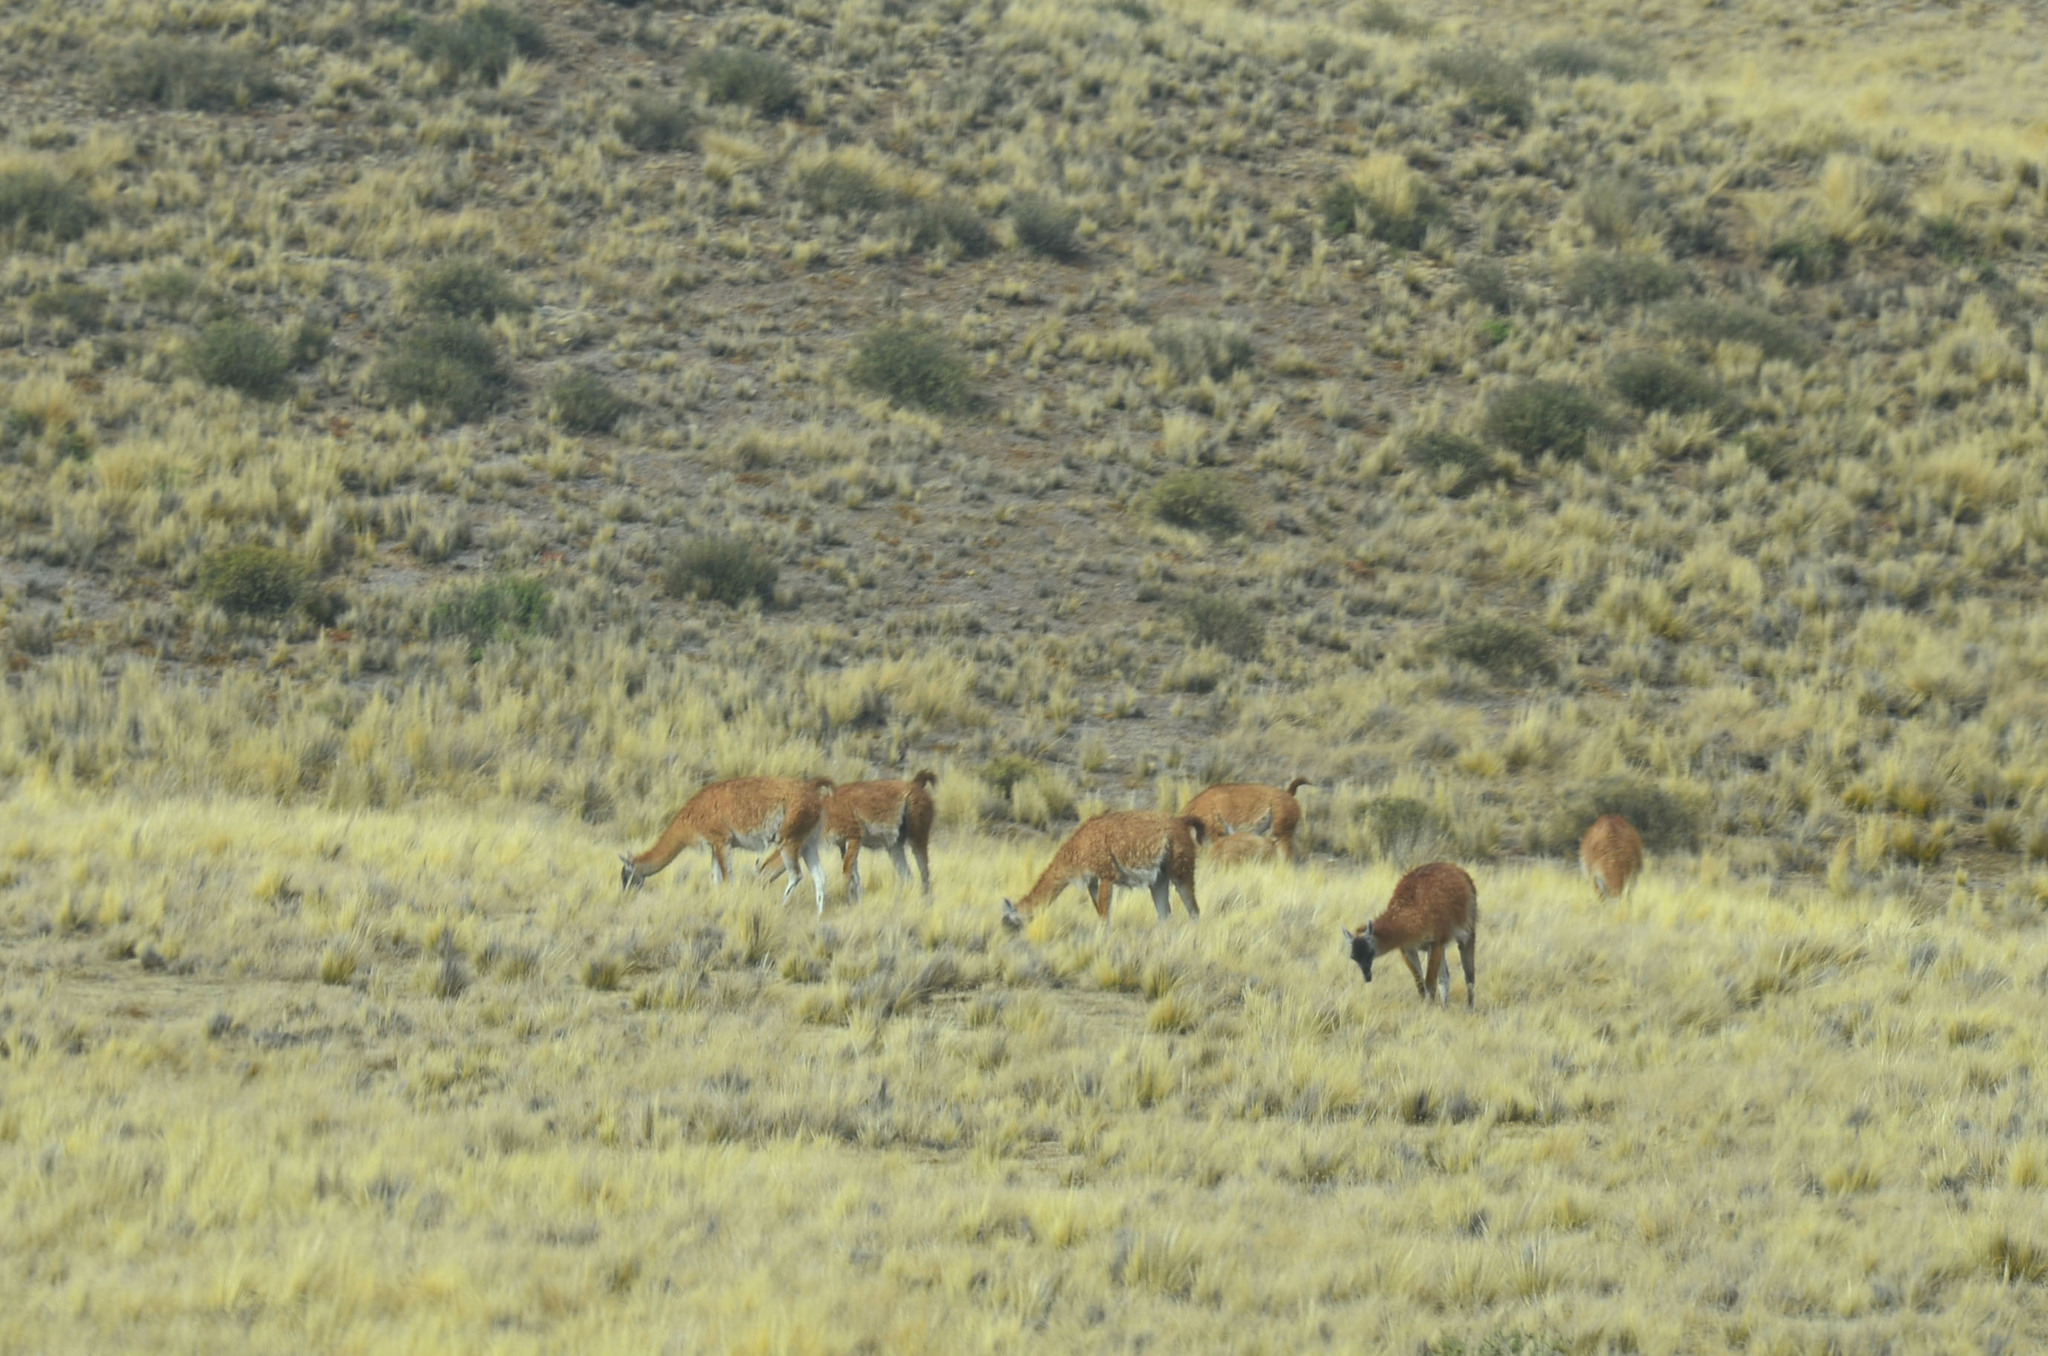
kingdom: Animalia
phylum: Chordata
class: Mammalia
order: Artiodactyla
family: Camelidae
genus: Lama
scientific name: Lama glama
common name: Llama
